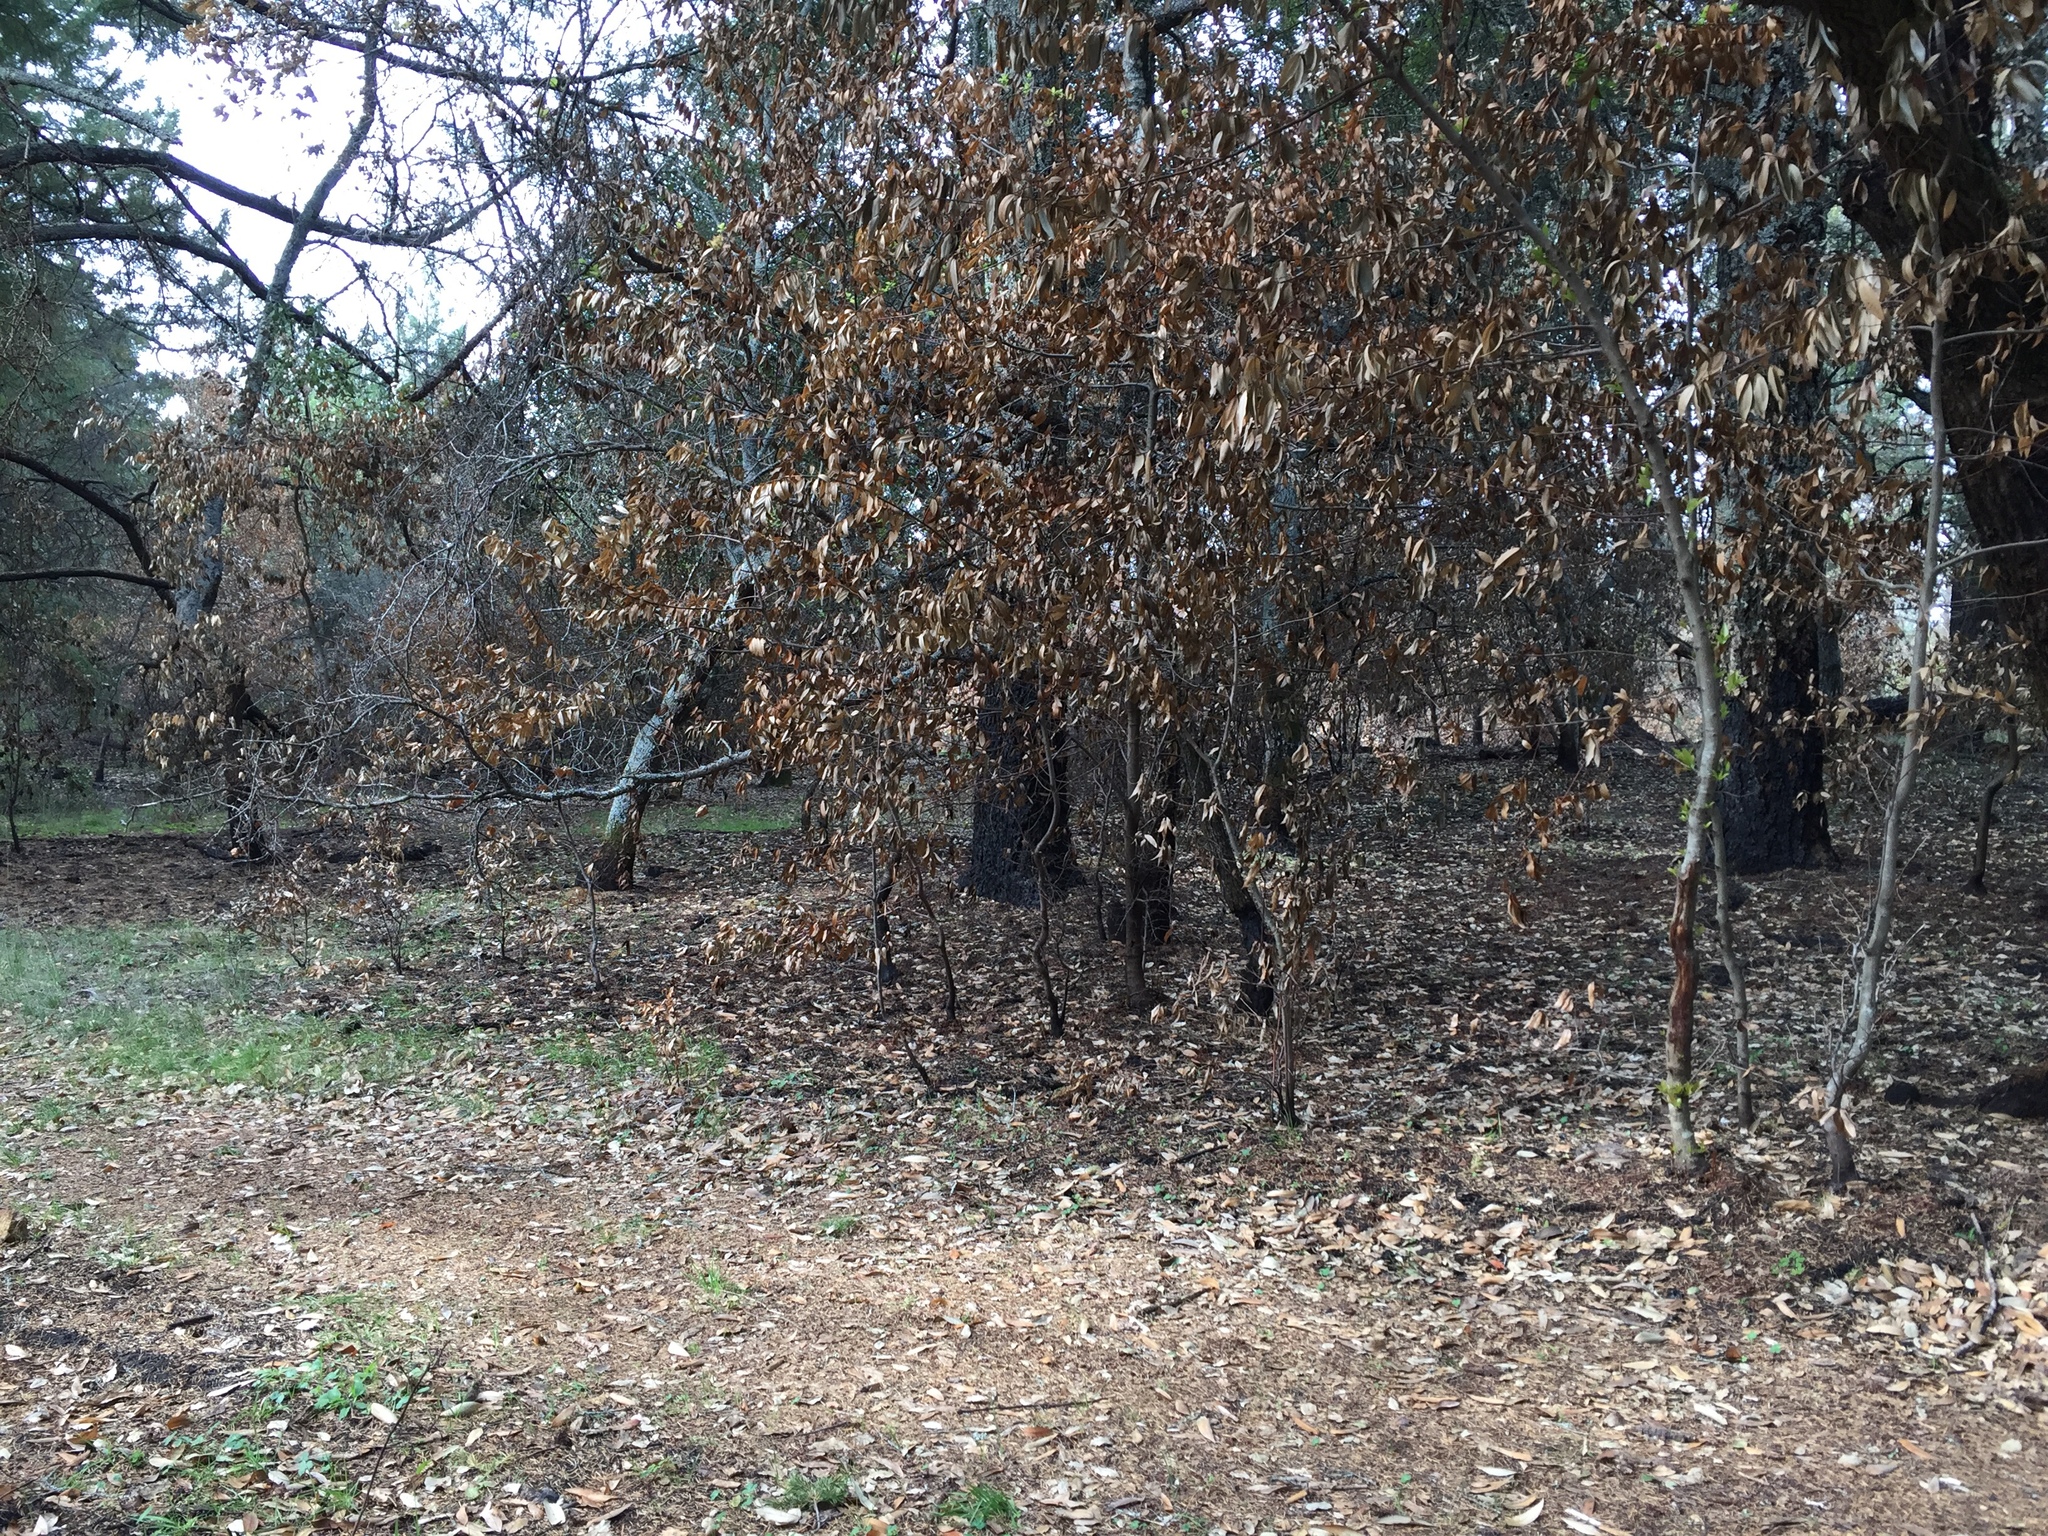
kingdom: Plantae
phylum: Tracheophyta
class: Magnoliopsida
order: Laurales
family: Lauraceae
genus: Umbellularia
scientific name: Umbellularia californica
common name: California bay
